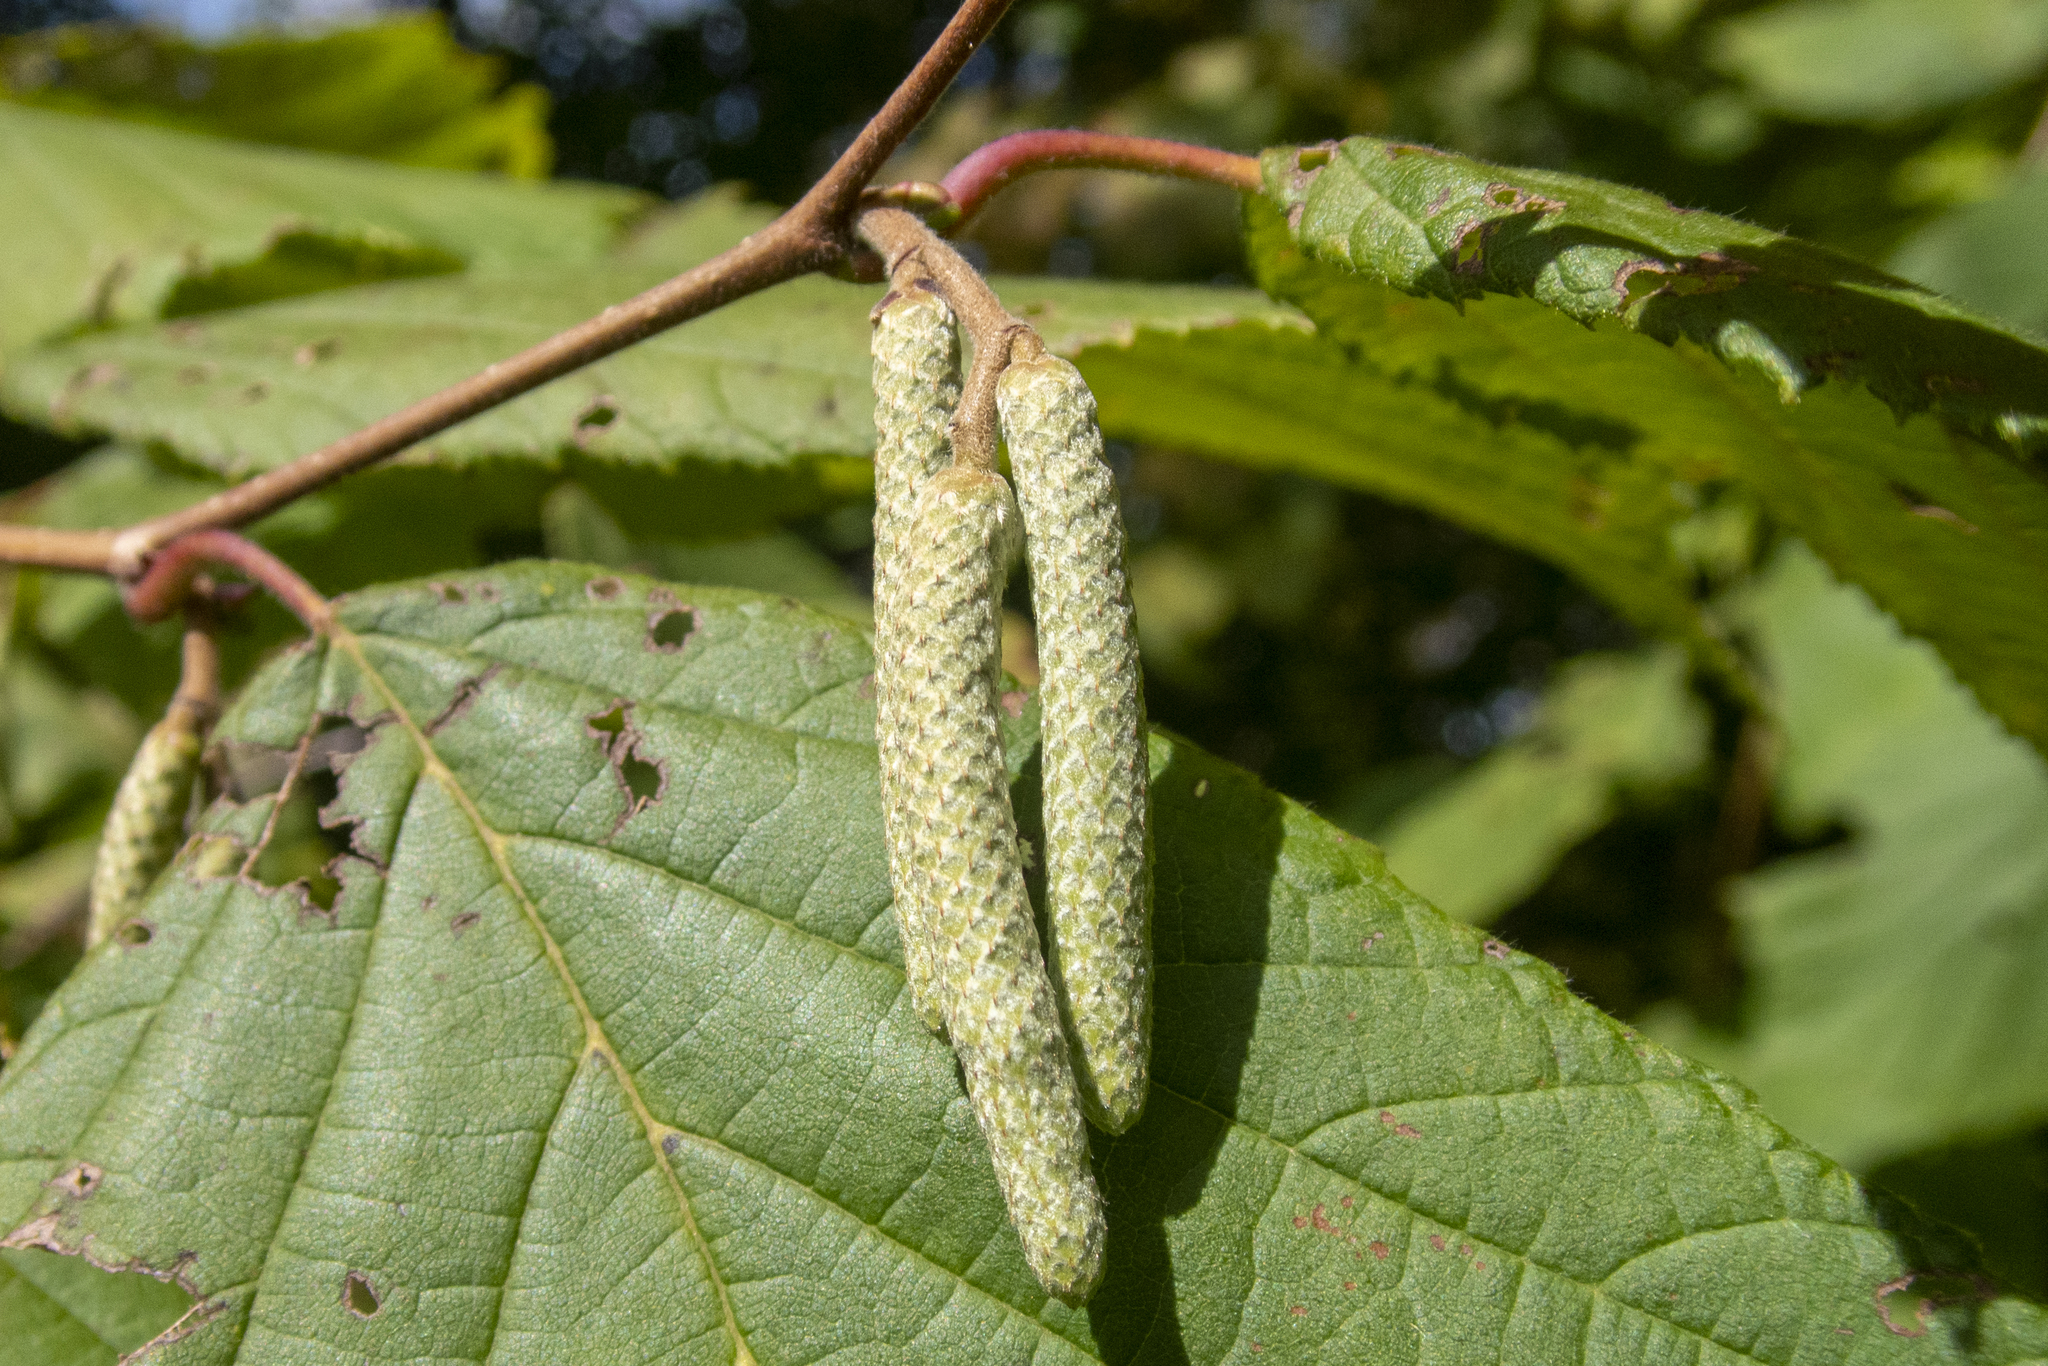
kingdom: Plantae
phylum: Tracheophyta
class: Magnoliopsida
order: Fagales
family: Betulaceae
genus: Corylus
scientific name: Corylus americana
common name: American hazel
